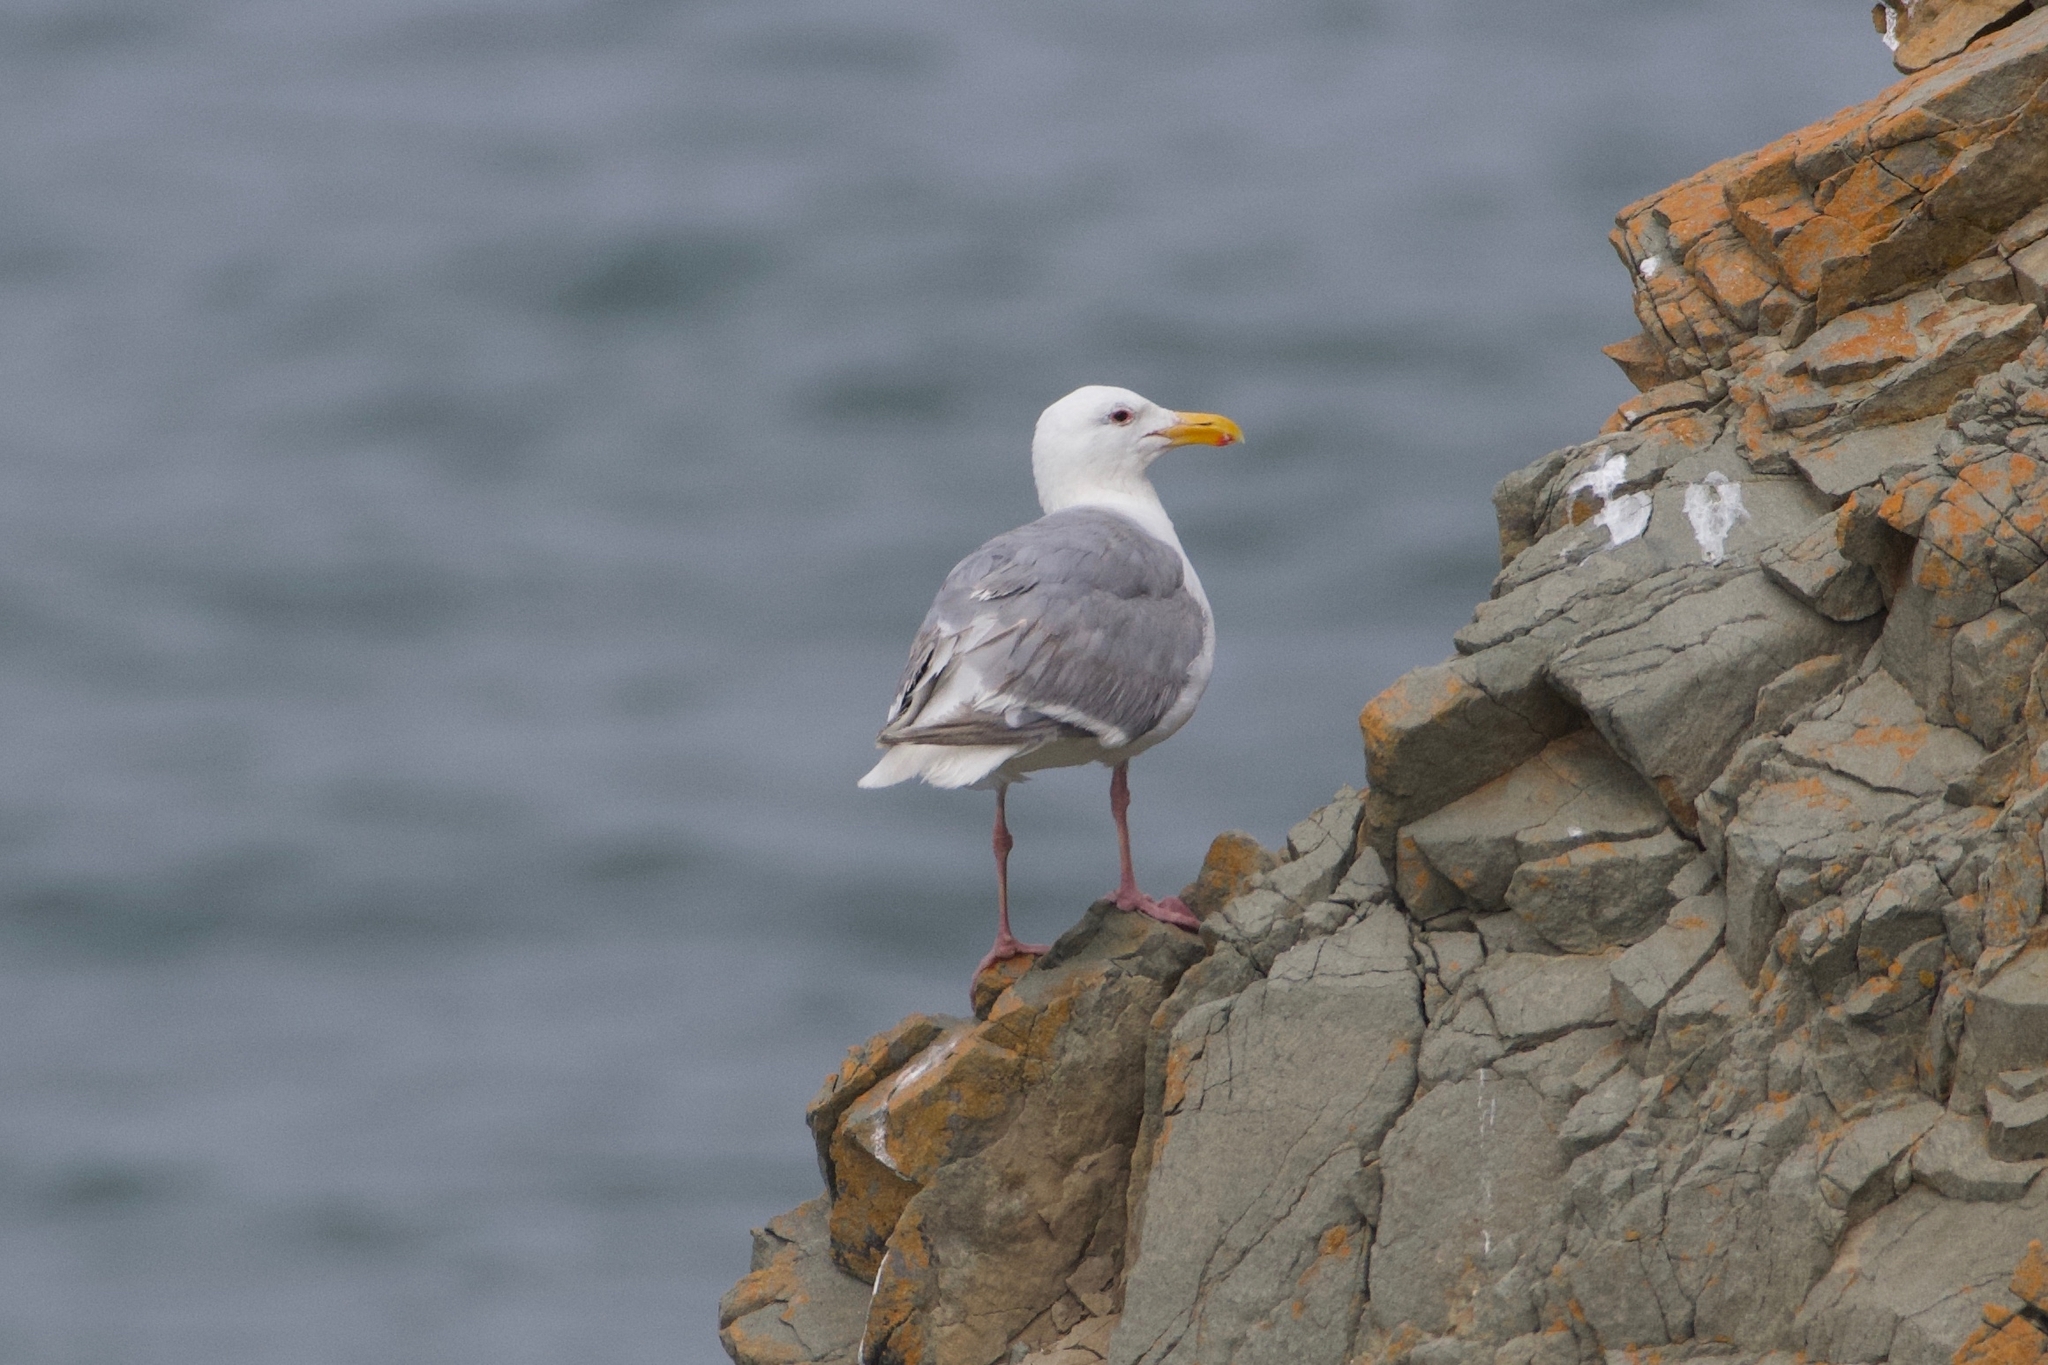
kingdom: Animalia
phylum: Chordata
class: Aves
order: Charadriiformes
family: Laridae
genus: Larus
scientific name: Larus glaucescens
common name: Glaucous-winged gull
